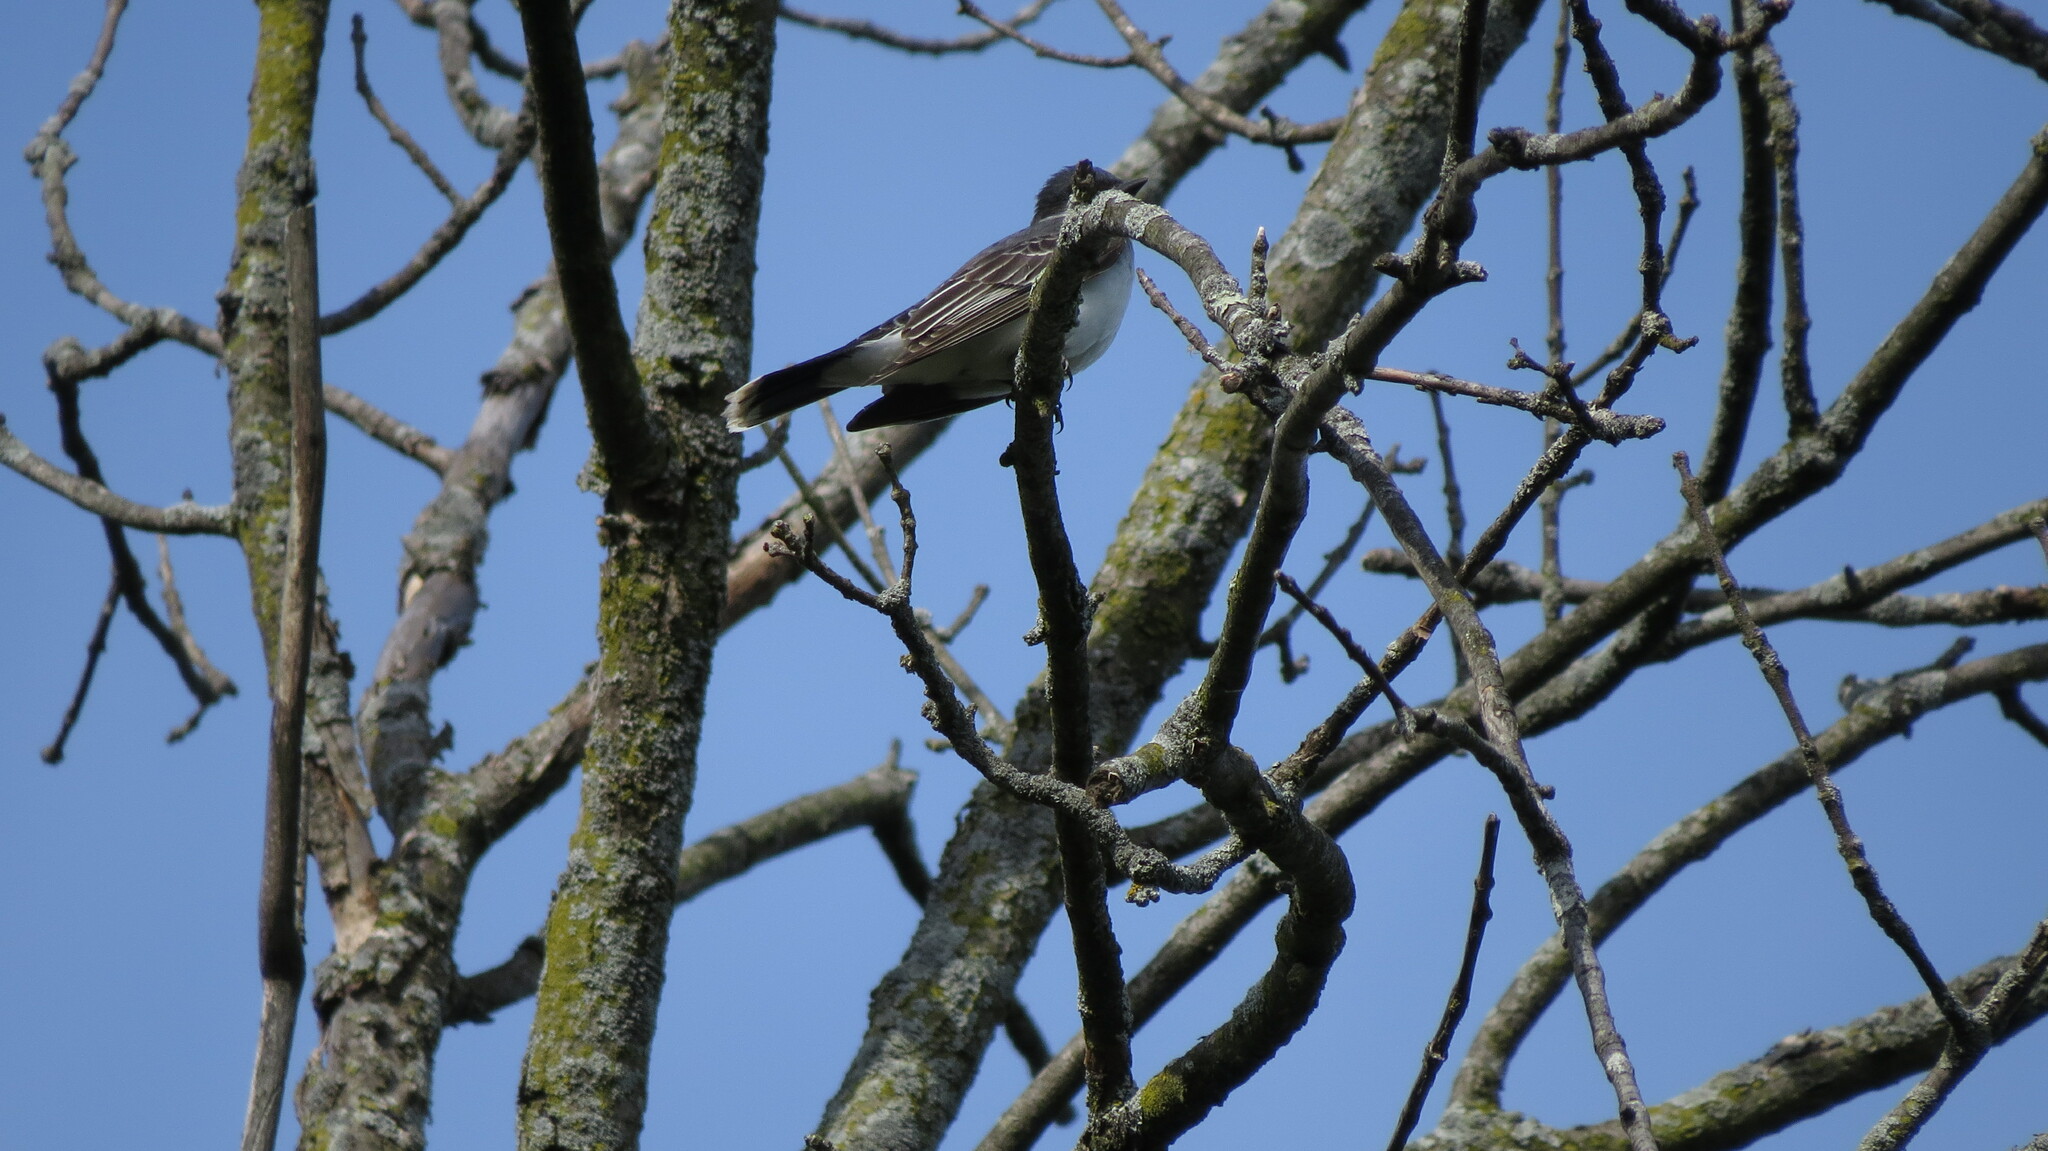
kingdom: Animalia
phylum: Chordata
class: Aves
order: Passeriformes
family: Tyrannidae
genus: Tyrannus
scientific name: Tyrannus tyrannus
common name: Eastern kingbird
